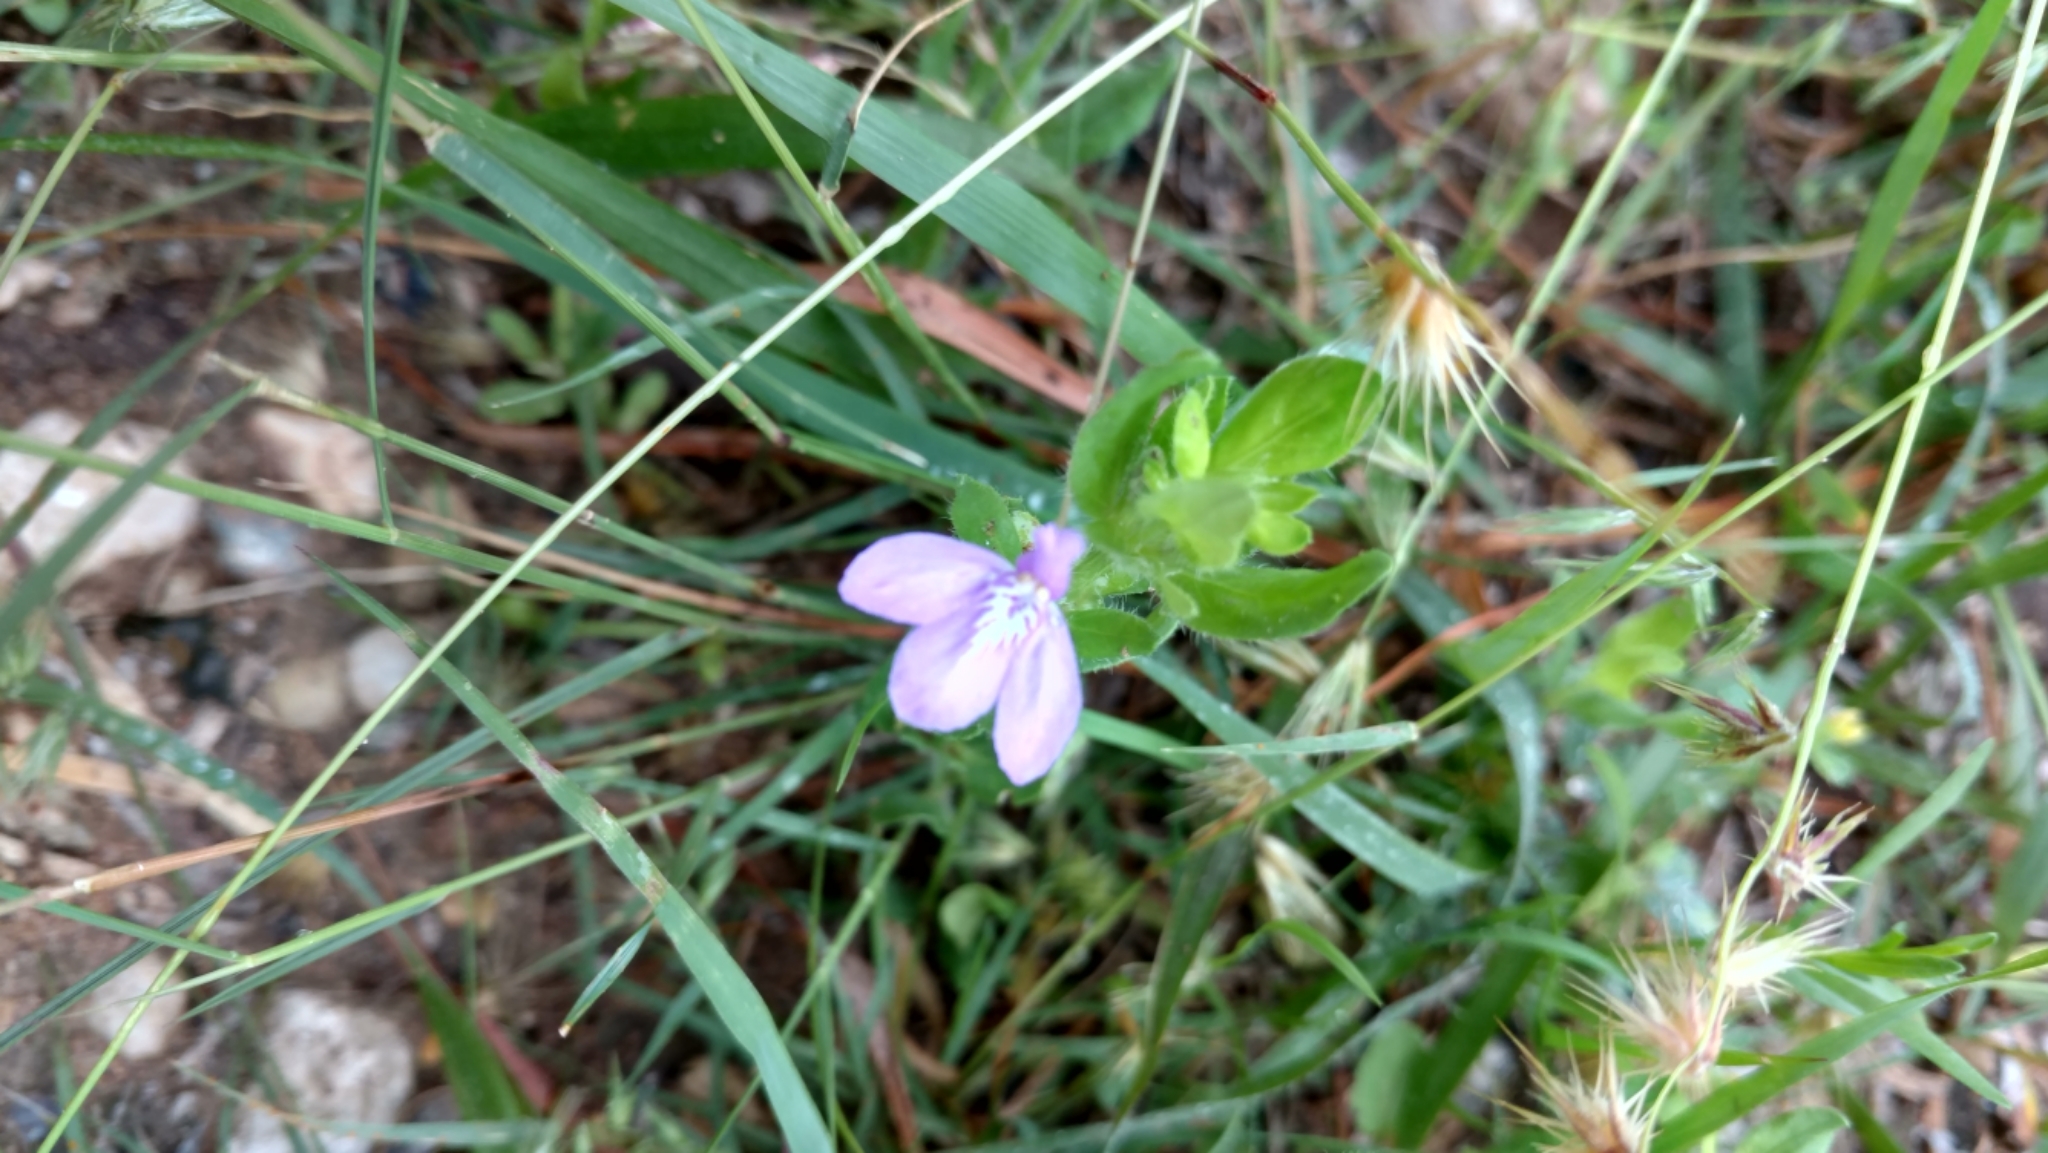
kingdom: Plantae
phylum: Tracheophyta
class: Magnoliopsida
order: Lamiales
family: Acanthaceae
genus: Justicia
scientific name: Justicia pilosella
